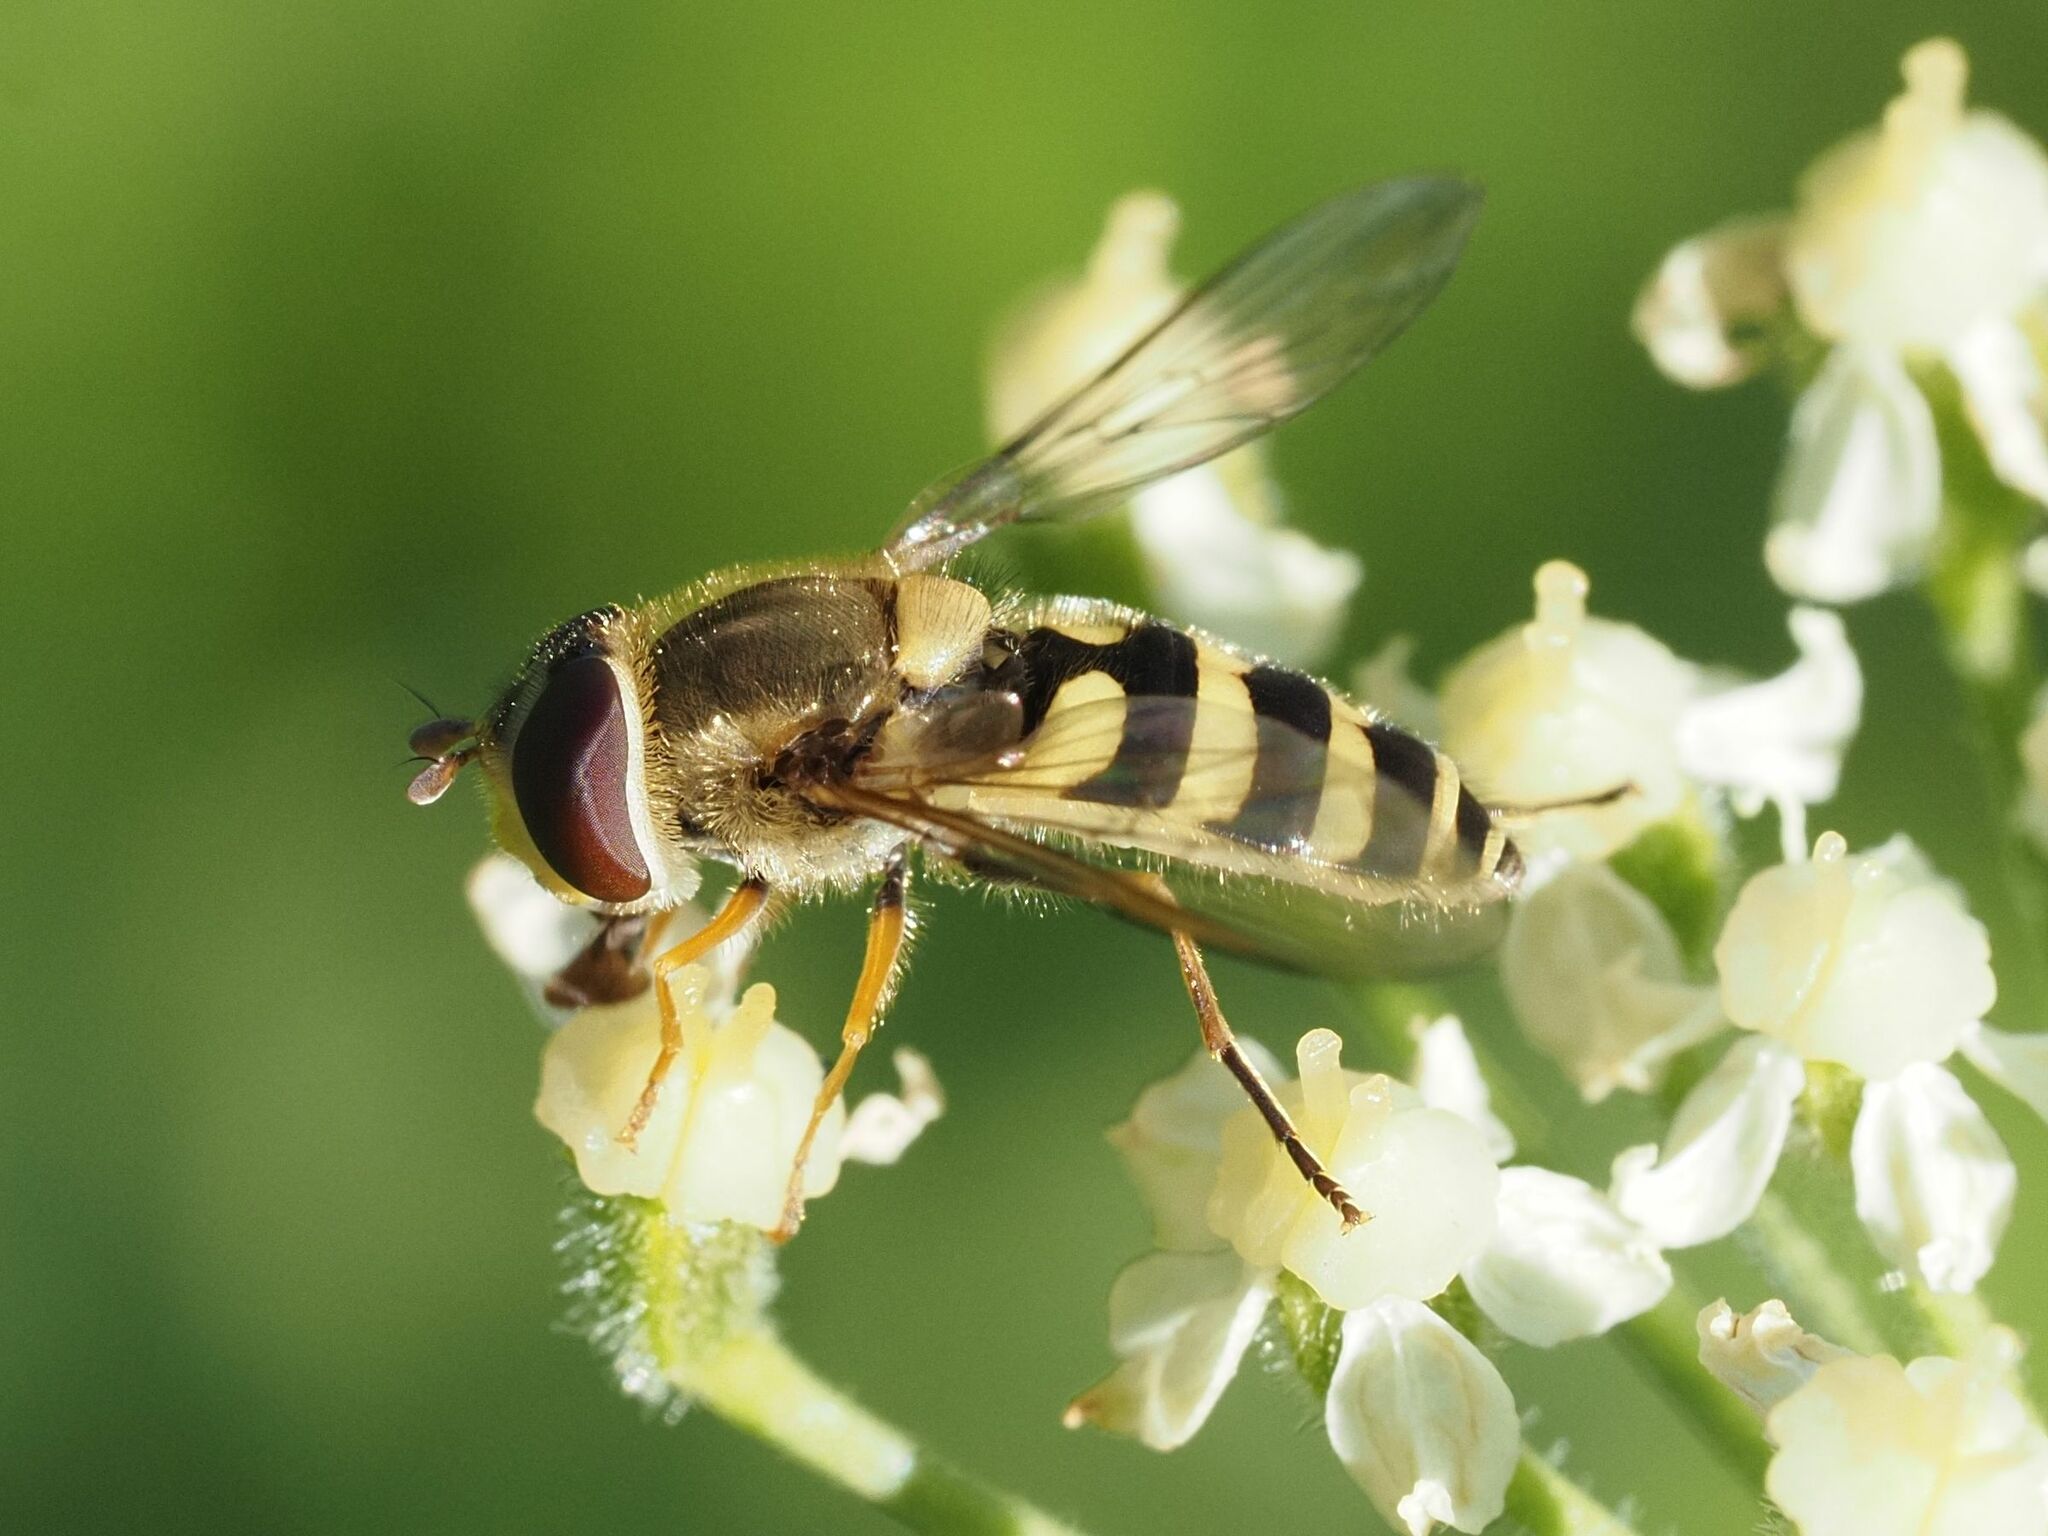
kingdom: Animalia
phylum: Arthropoda
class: Insecta
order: Diptera
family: Syrphidae
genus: Syrphus
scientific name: Syrphus vitripennis
